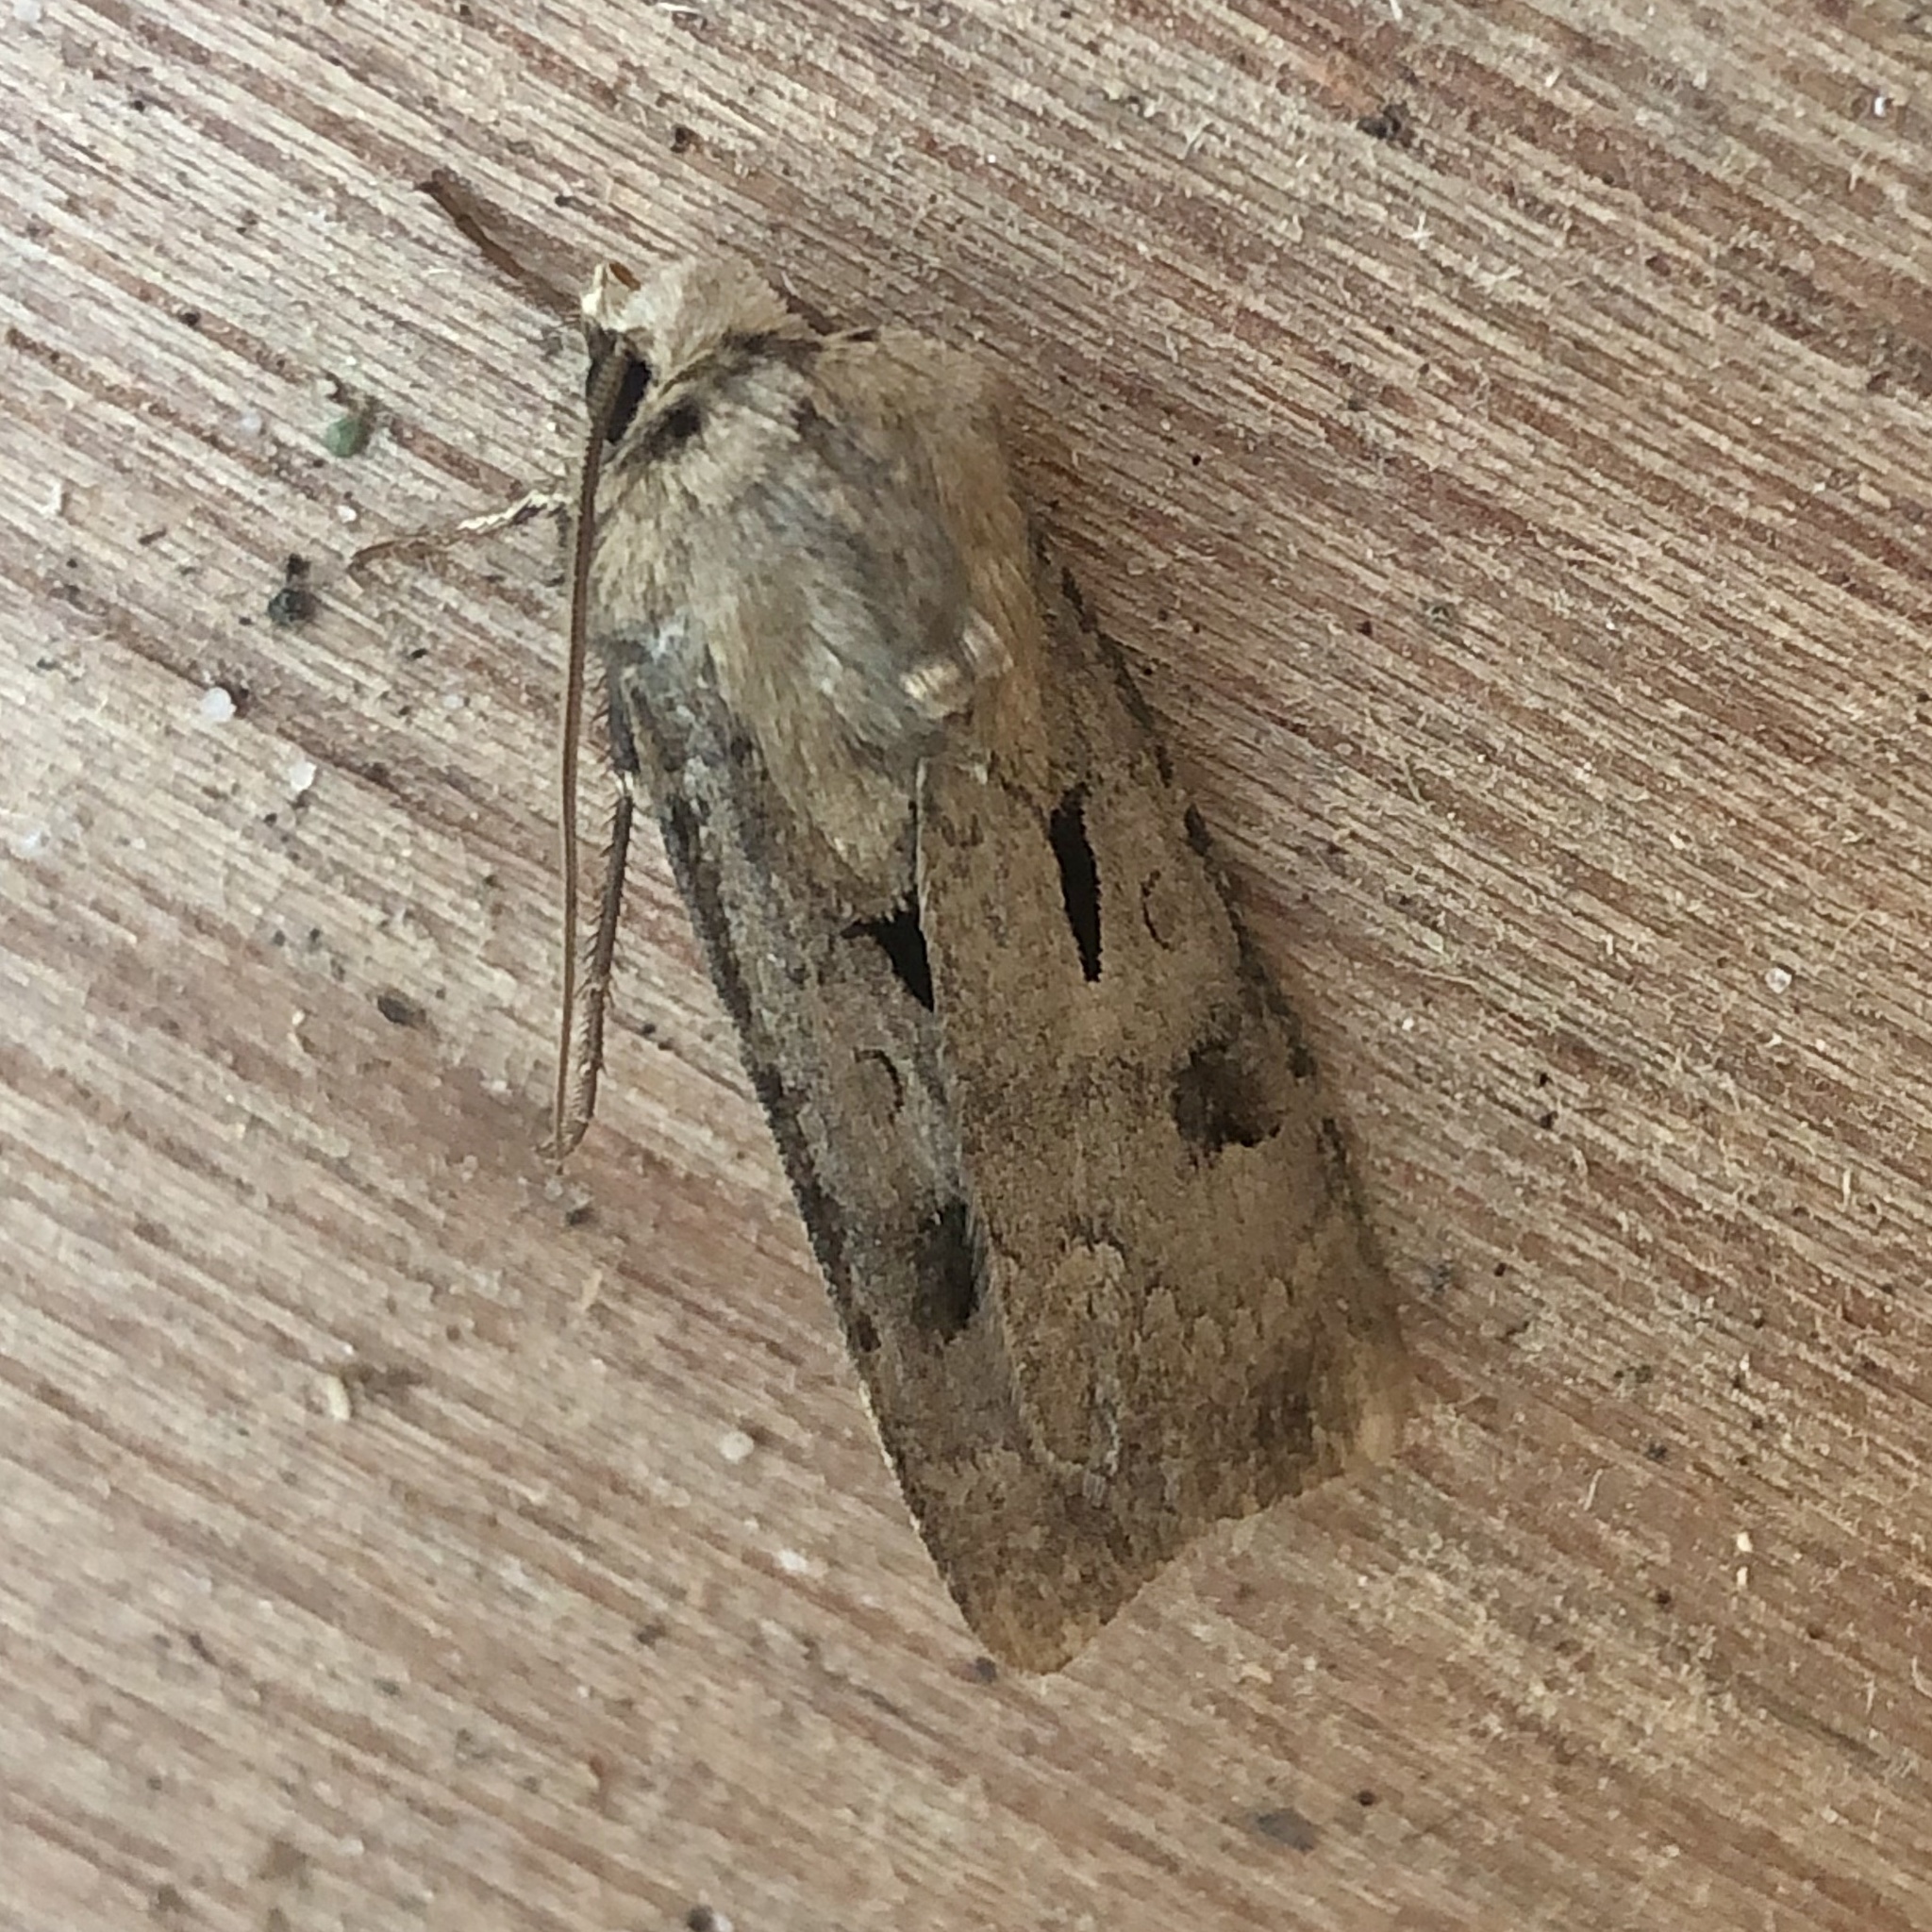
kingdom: Animalia
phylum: Arthropoda
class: Insecta
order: Lepidoptera
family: Noctuidae
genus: Agrotis
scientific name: Agrotis exclamationis
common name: Heart and dart
